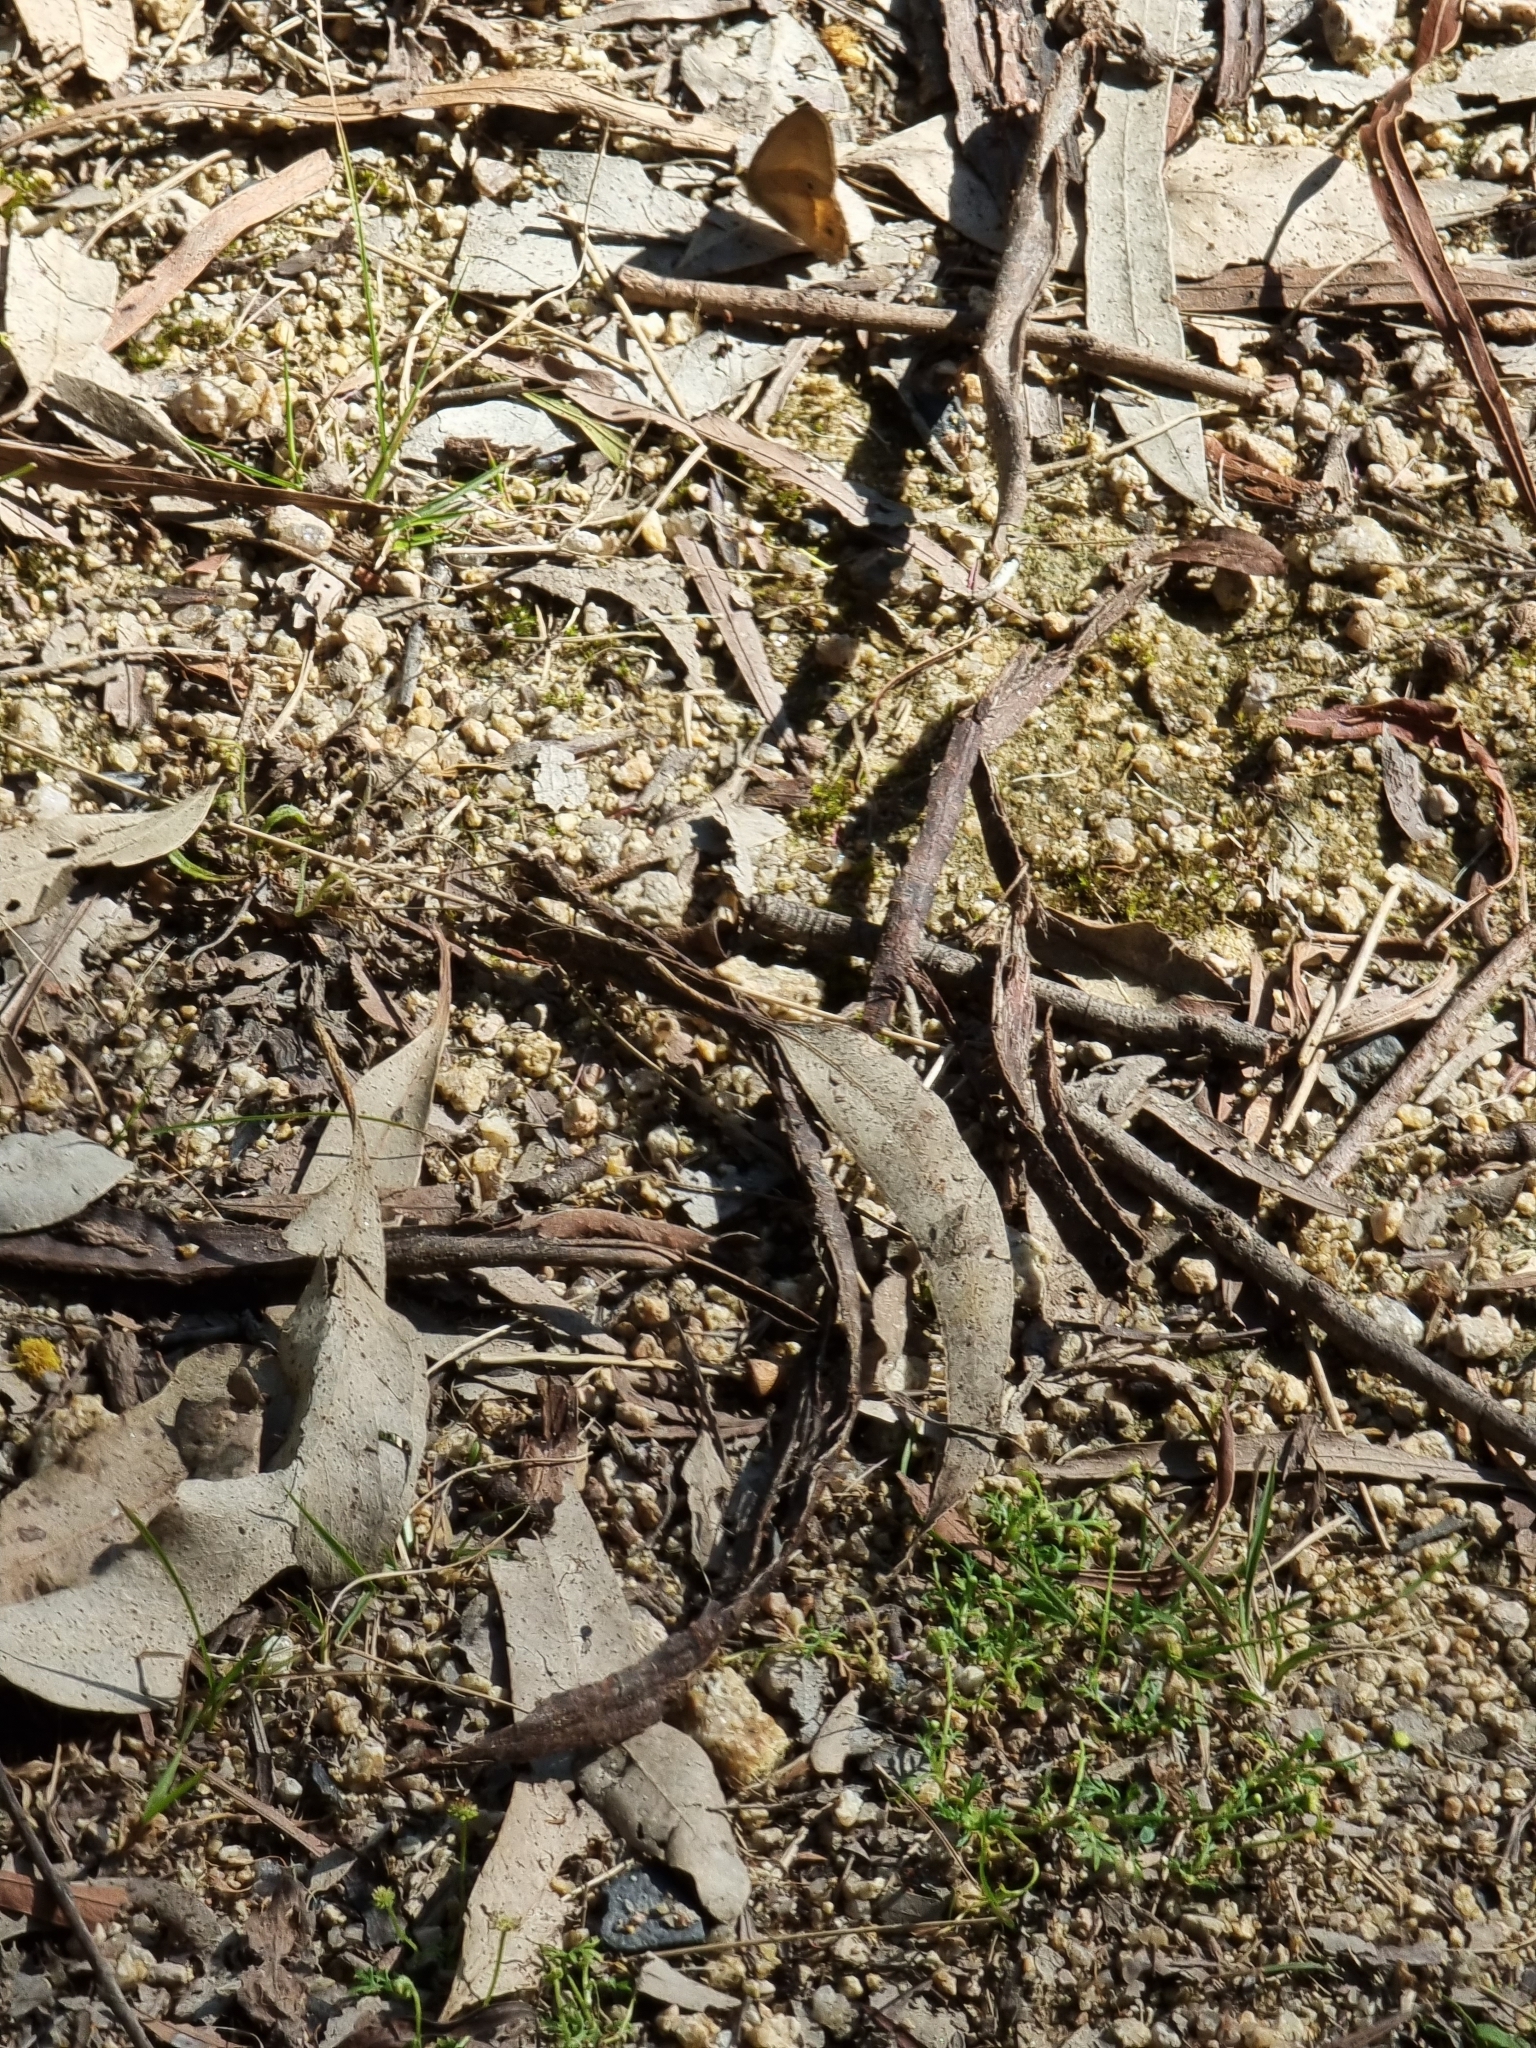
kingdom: Animalia
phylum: Arthropoda
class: Insecta
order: Lepidoptera
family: Nymphalidae
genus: Hypocysta
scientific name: Hypocysta pseudirius
